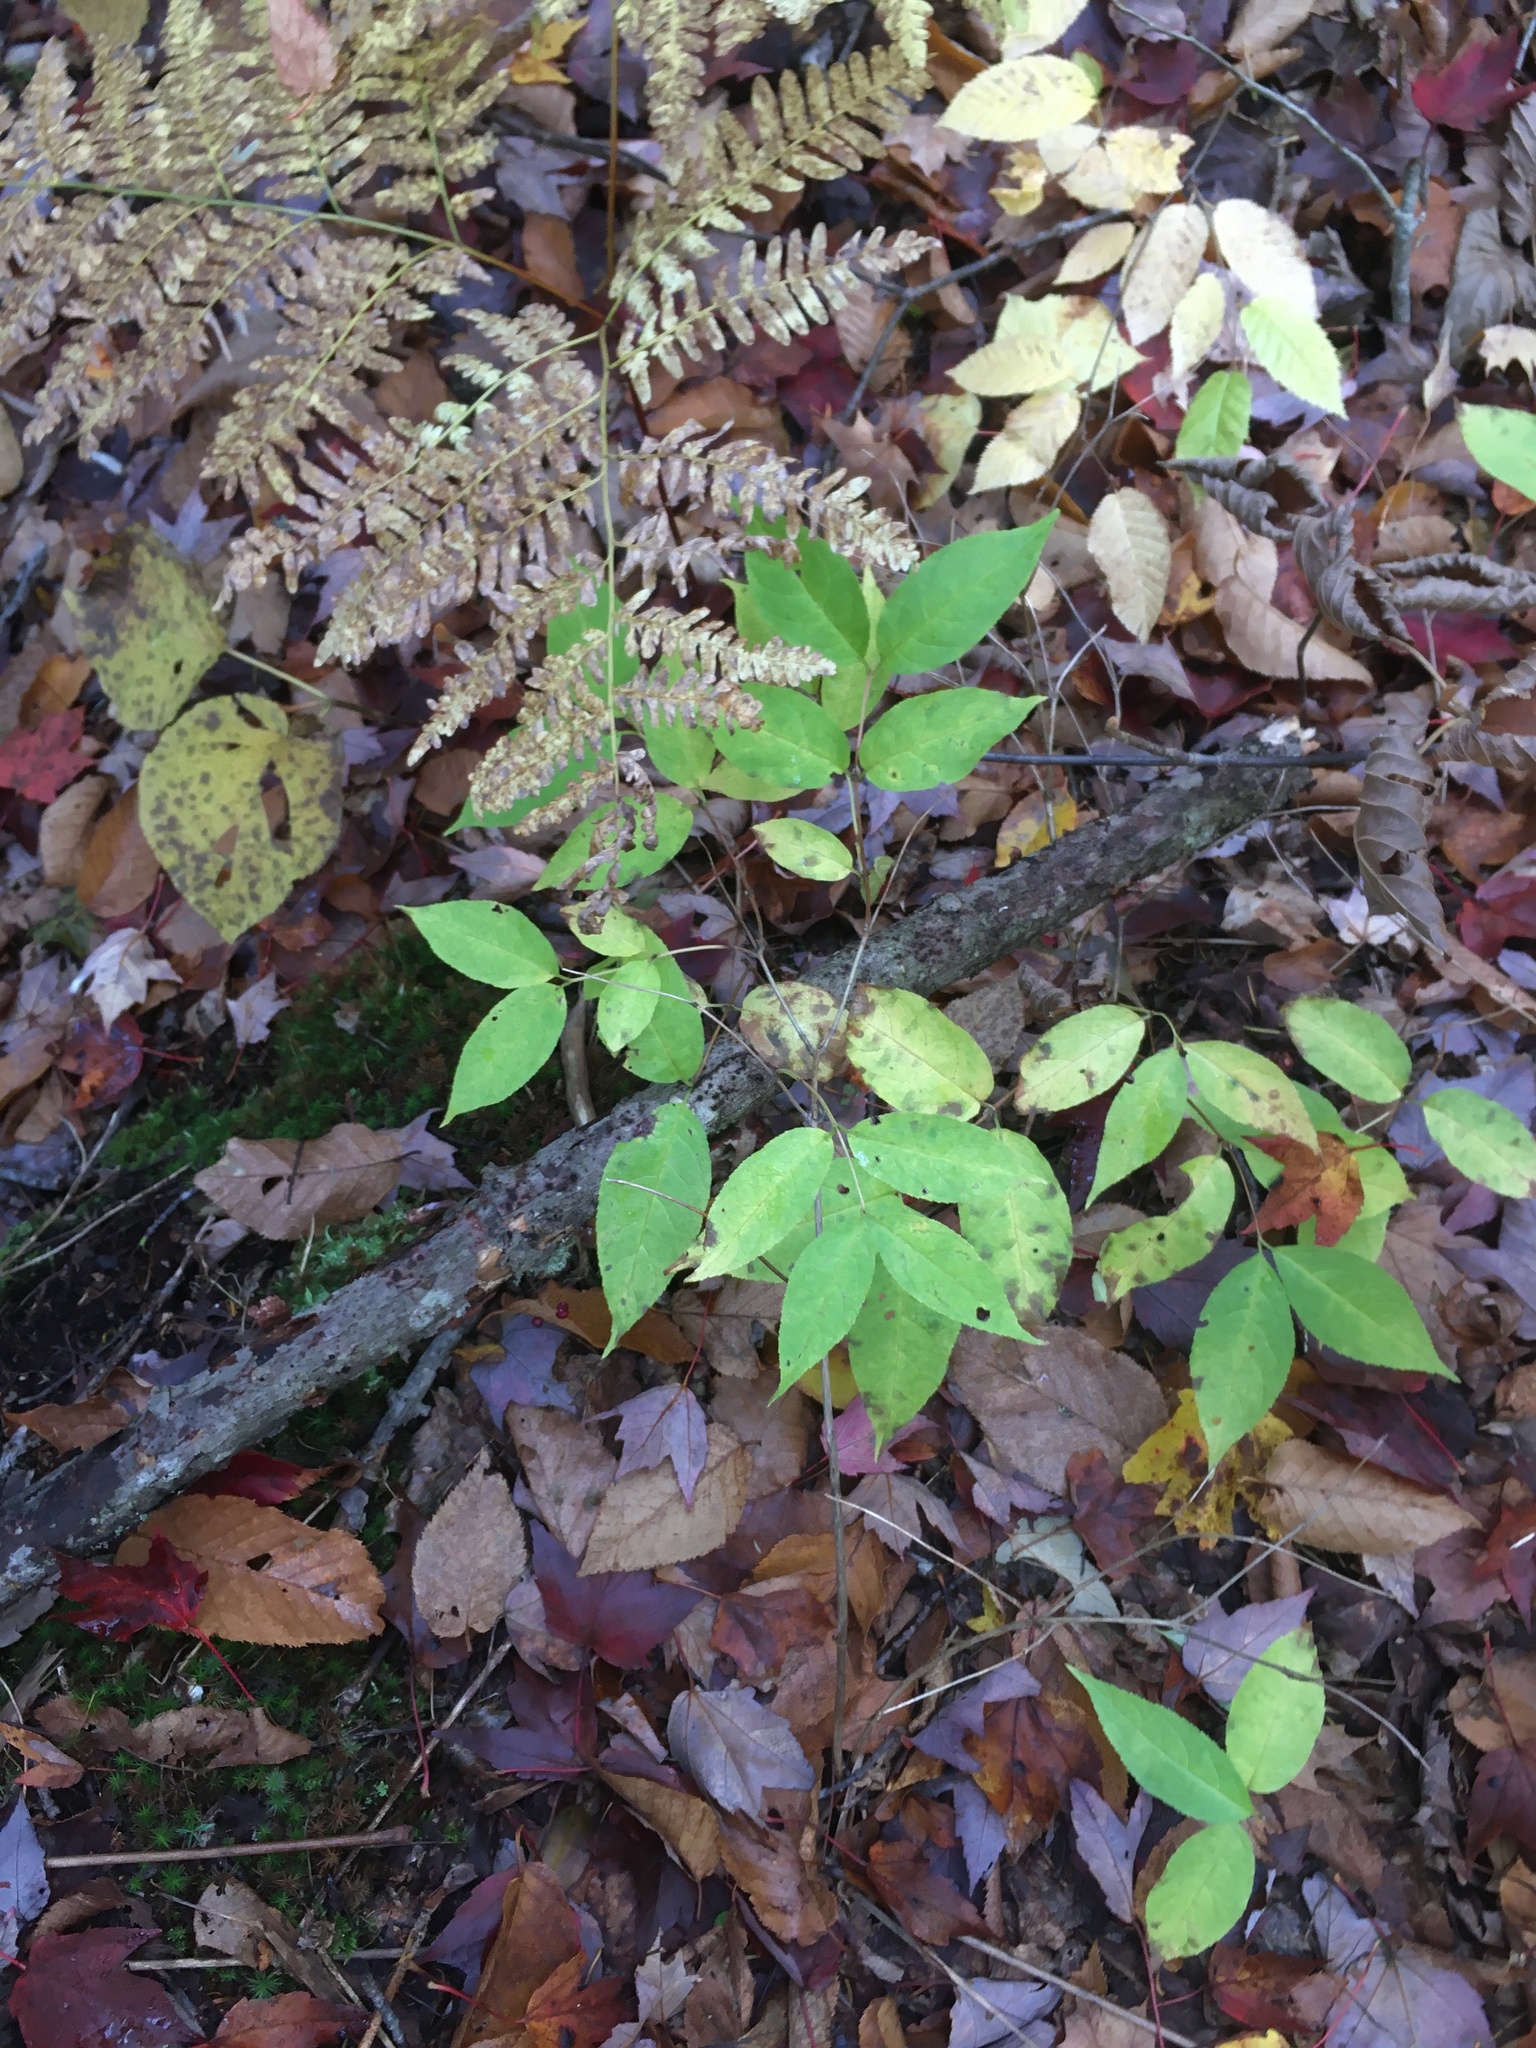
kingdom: Plantae
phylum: Tracheophyta
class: Magnoliopsida
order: Dipsacales
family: Caprifoliaceae
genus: Diervilla
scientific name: Diervilla lonicera
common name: Bush-honeysuckle
